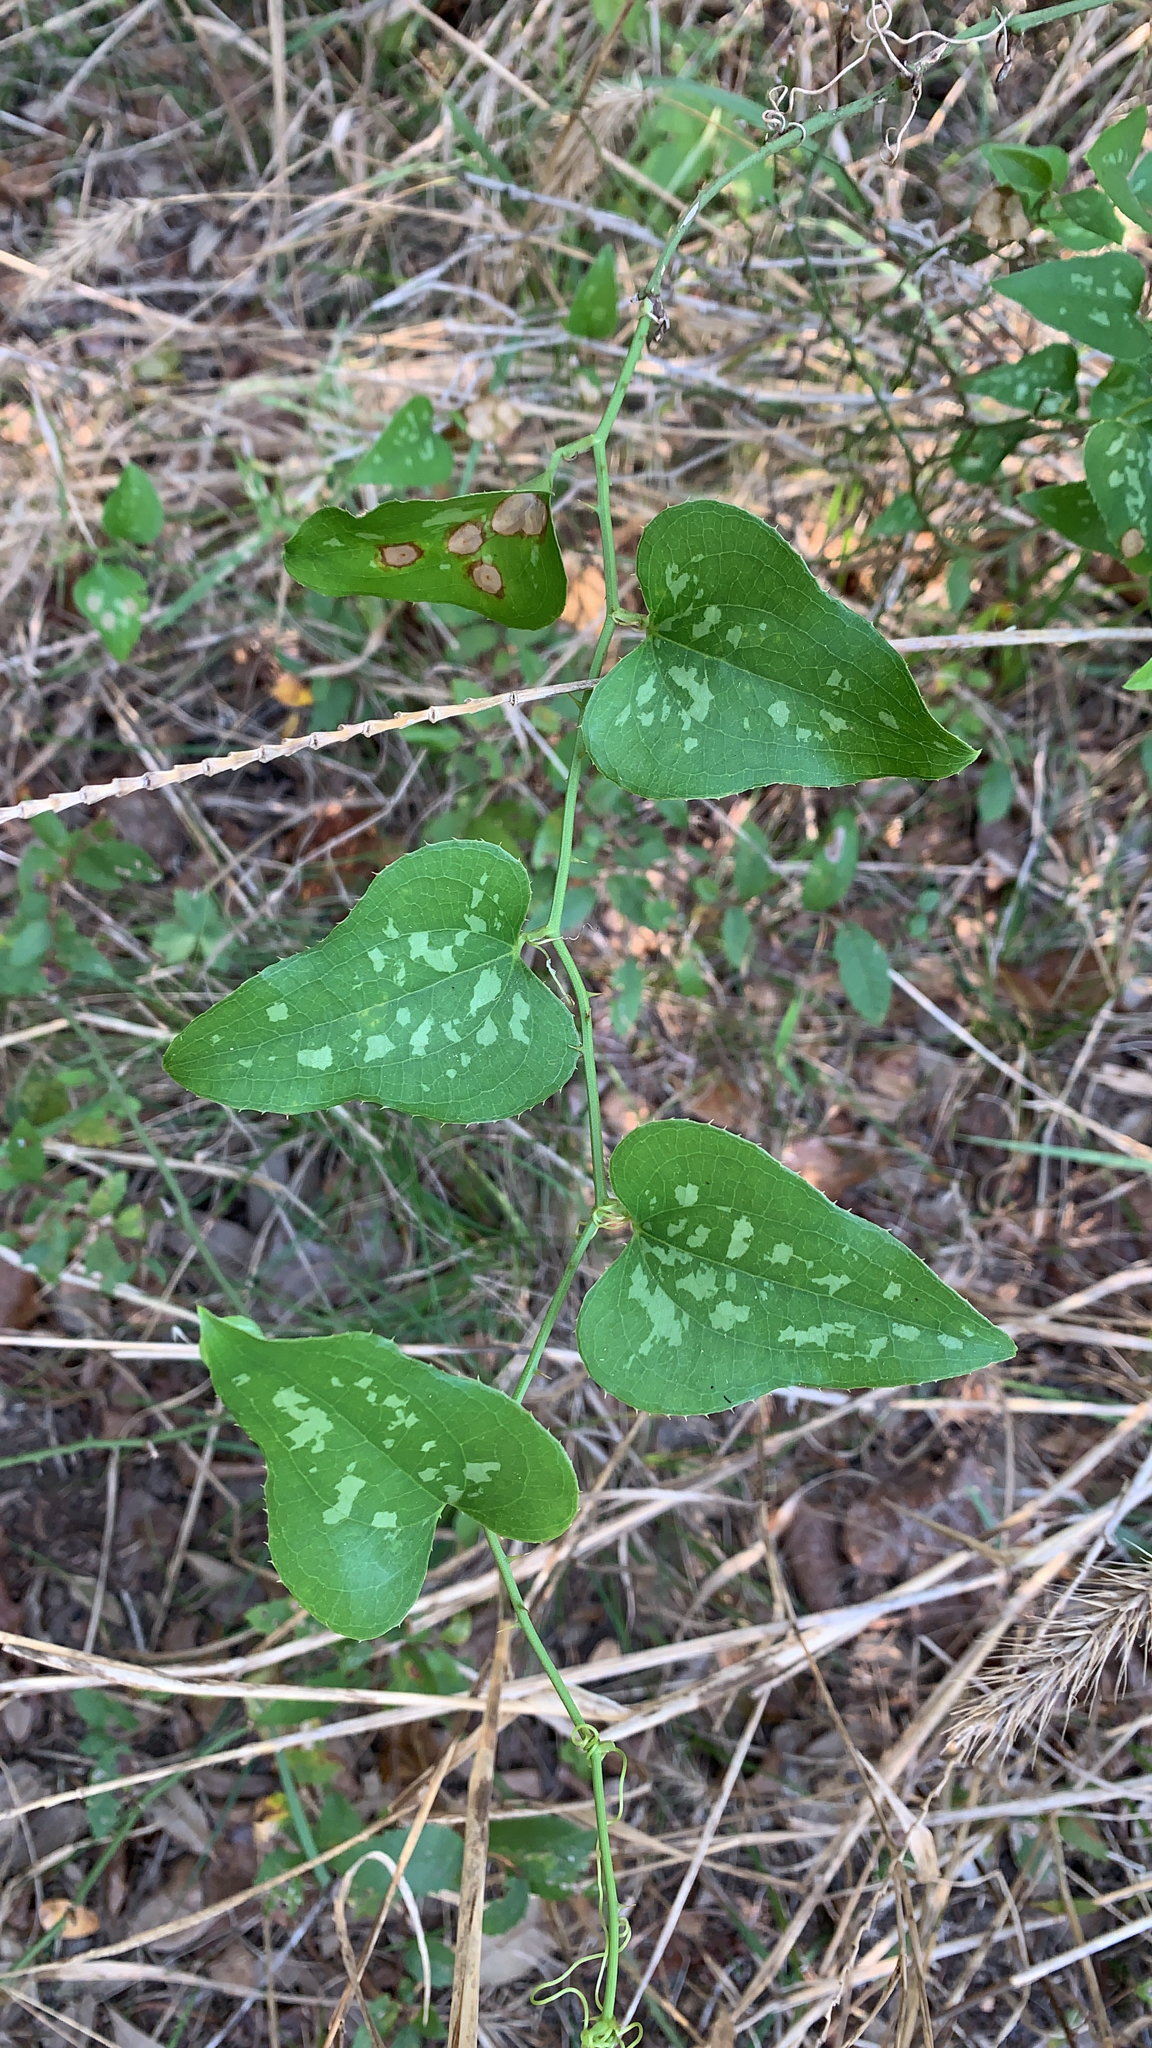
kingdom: Plantae
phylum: Tracheophyta
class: Liliopsida
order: Liliales
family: Smilacaceae
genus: Smilax
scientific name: Smilax bona-nox
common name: Catbrier
